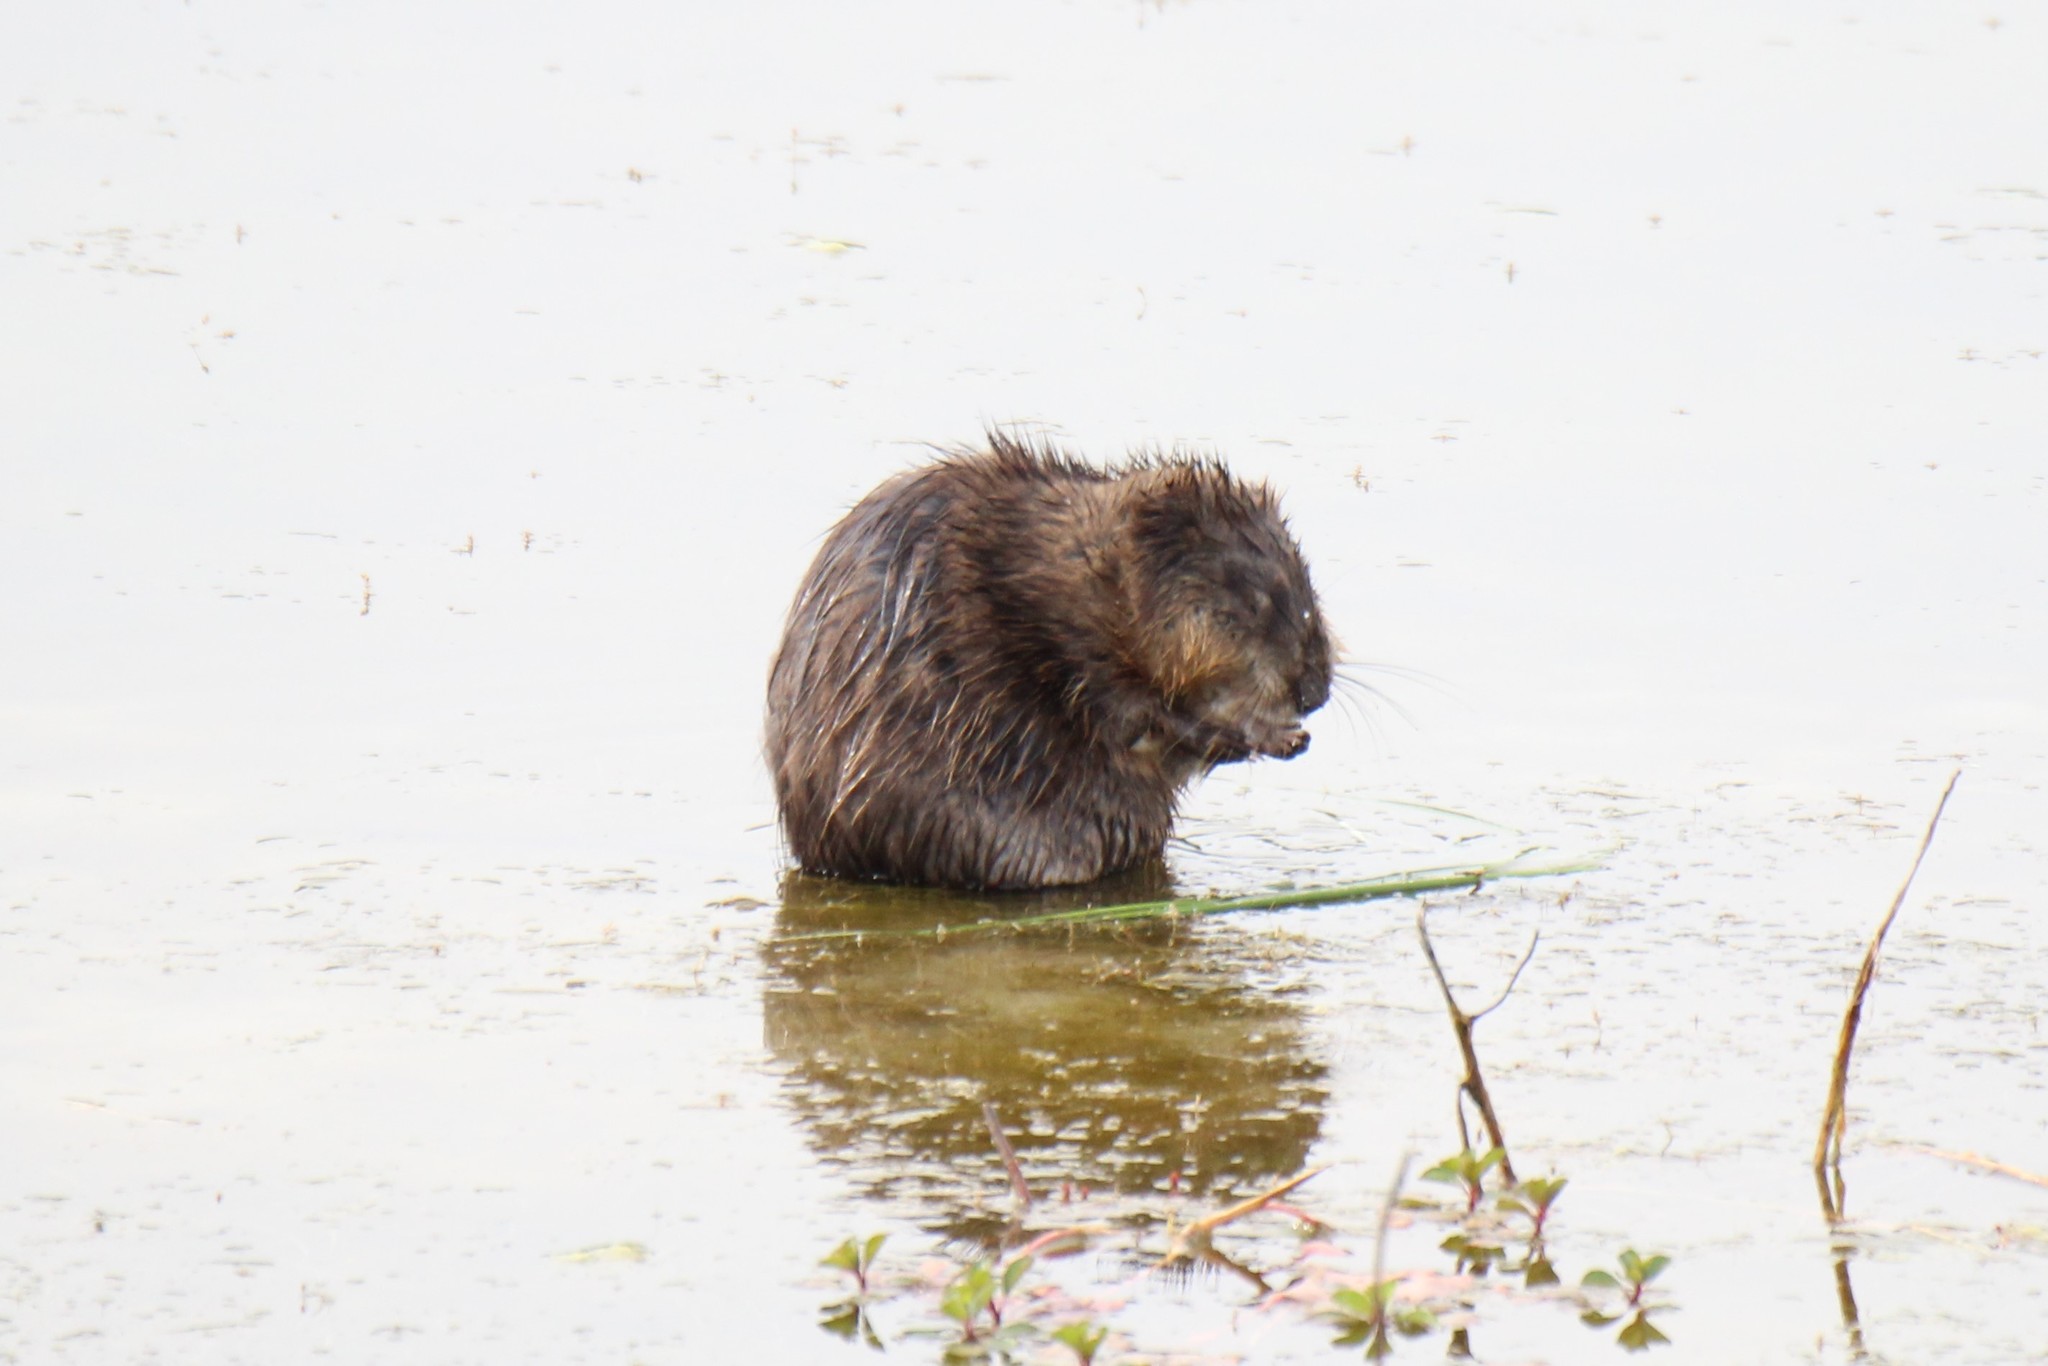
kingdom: Animalia
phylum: Chordata
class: Mammalia
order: Rodentia
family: Cricetidae
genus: Ondatra
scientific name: Ondatra zibethicus
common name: Muskrat
